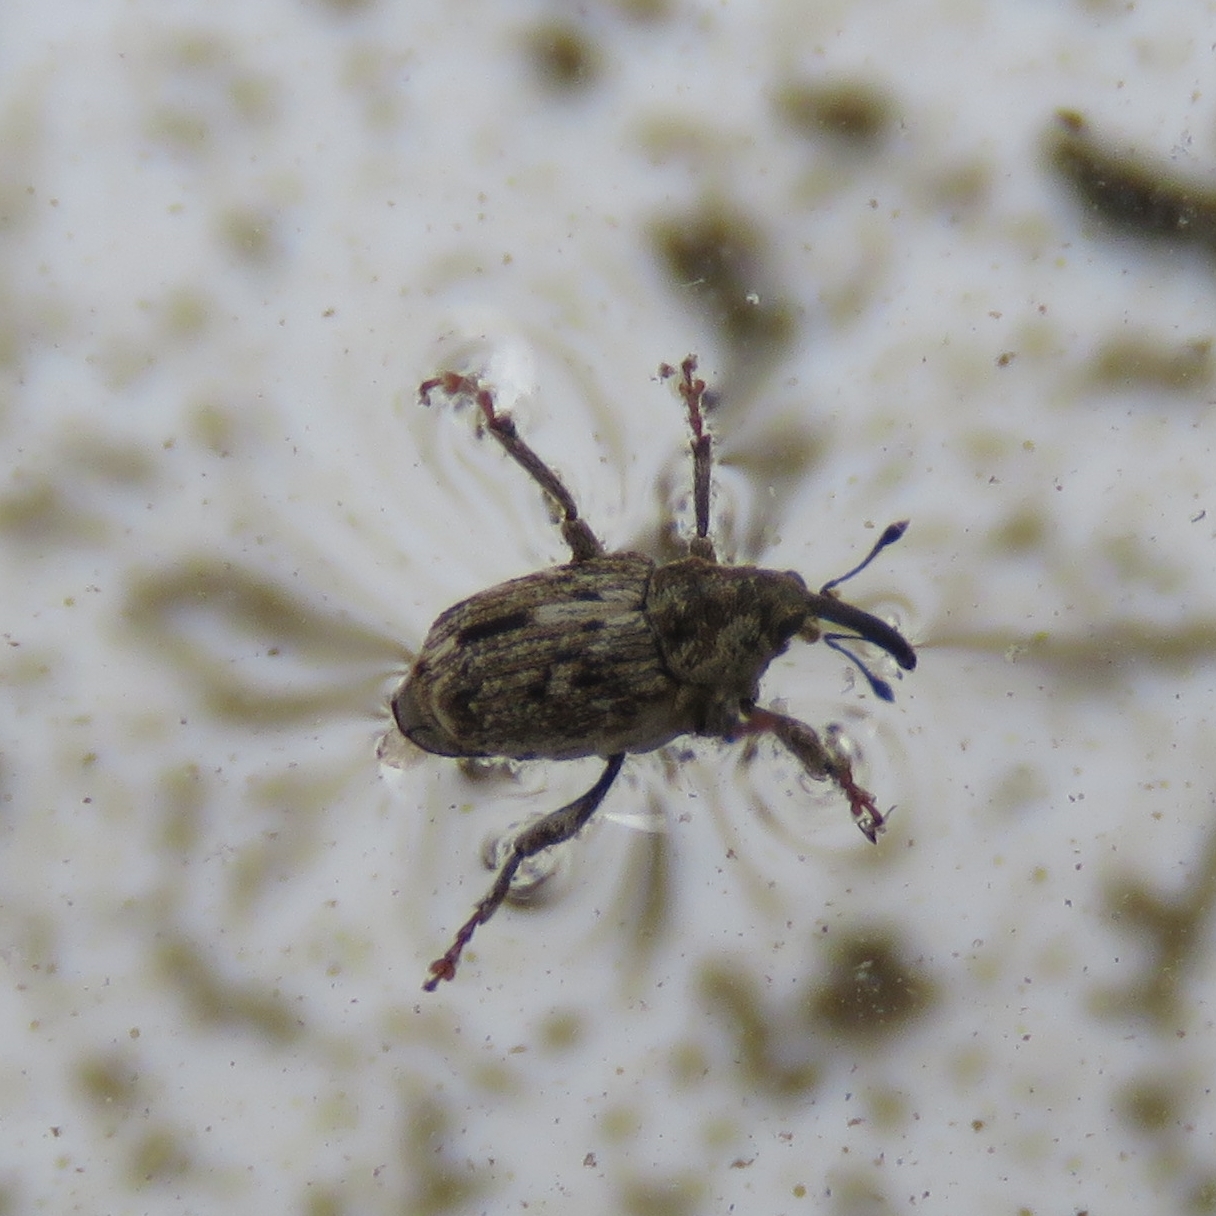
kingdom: Animalia
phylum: Arthropoda
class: Insecta
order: Coleoptera
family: Curculionidae
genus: Datonychus
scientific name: Datonychus melanostictus
